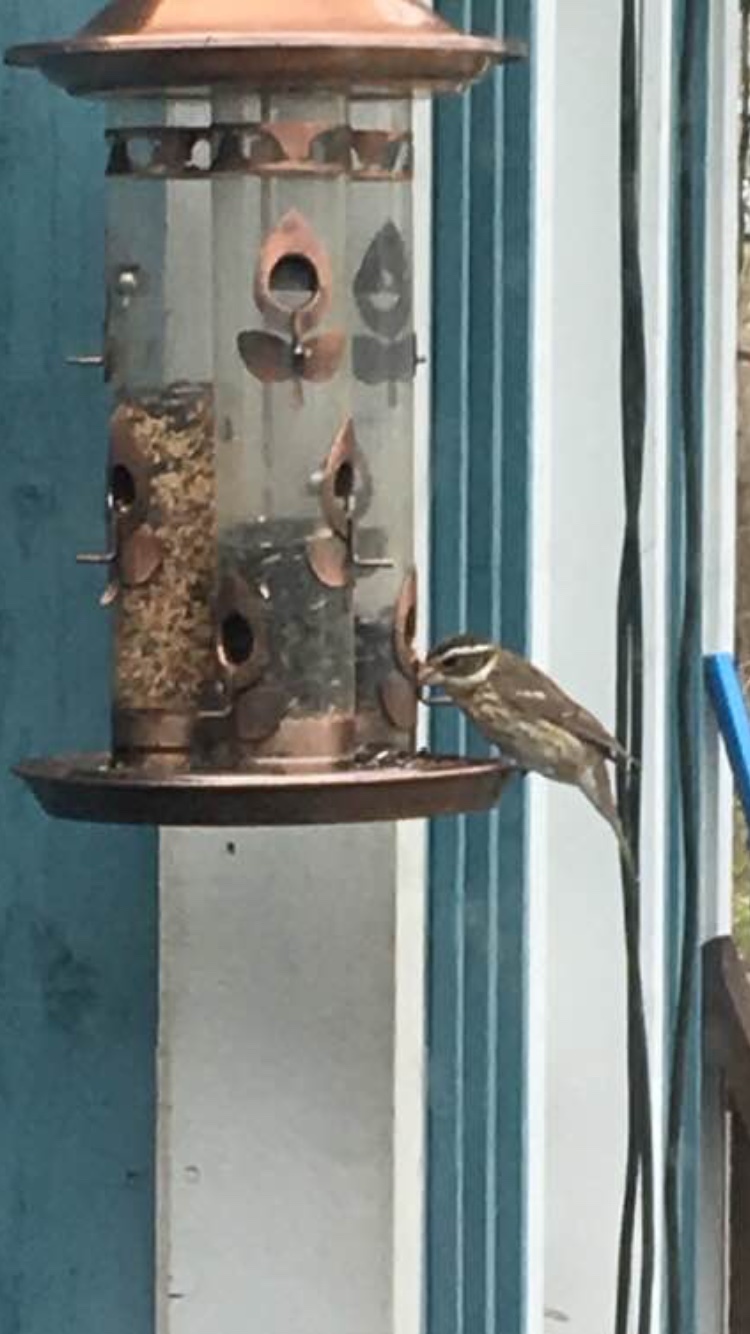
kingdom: Animalia
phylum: Chordata
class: Aves
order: Passeriformes
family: Cardinalidae
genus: Pheucticus
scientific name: Pheucticus ludovicianus
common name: Rose-breasted grosbeak
